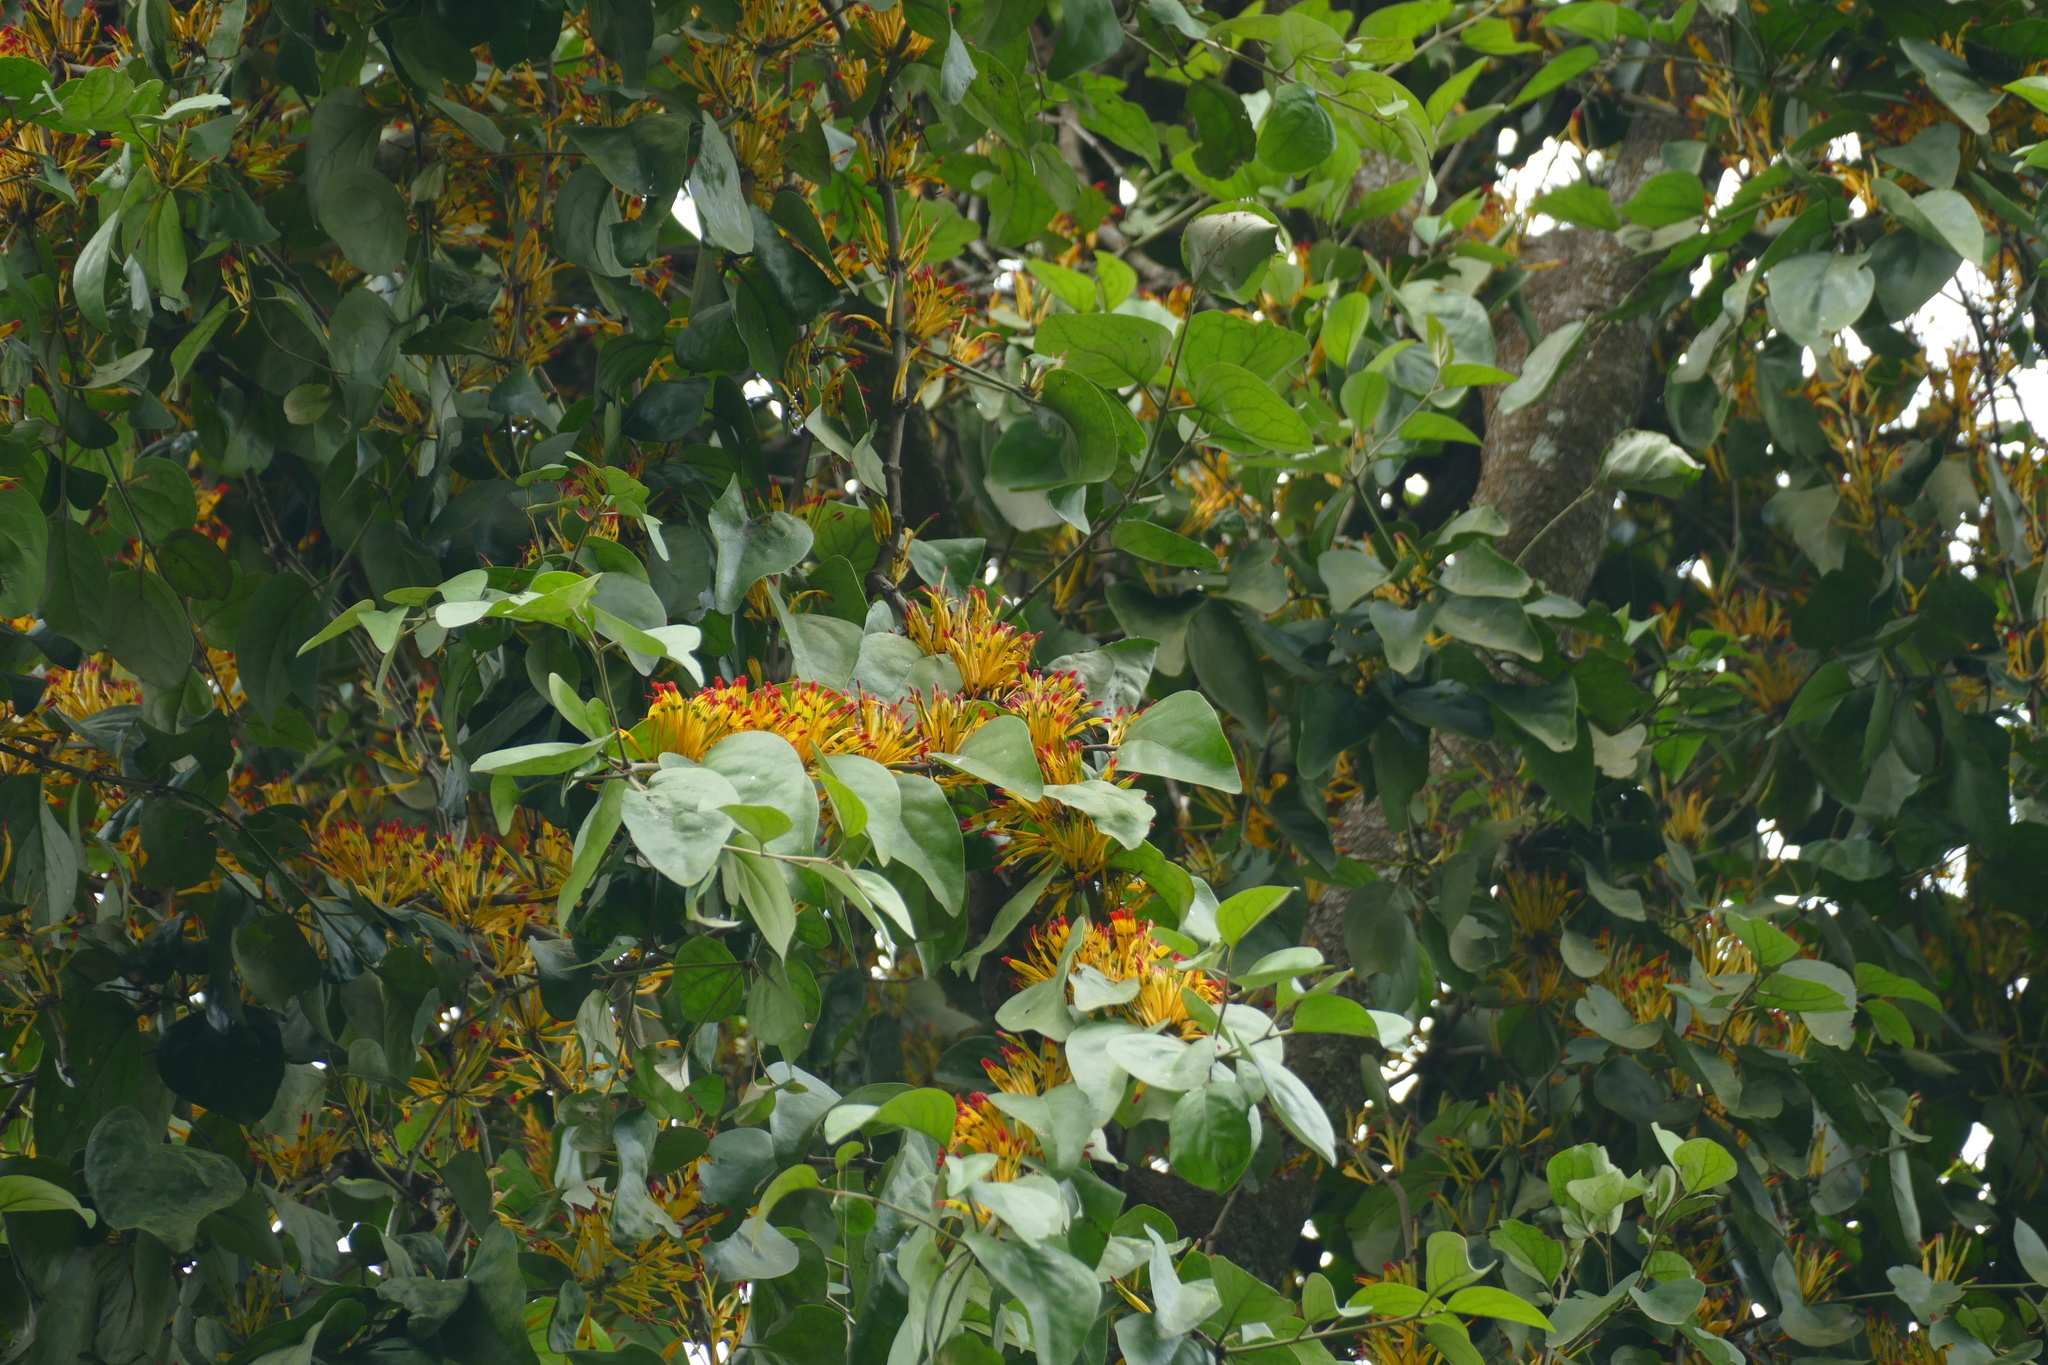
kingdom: Plantae
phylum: Tracheophyta
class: Magnoliopsida
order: Santalales
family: Loranthaceae
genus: Phragmanthera
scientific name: Phragmanthera capitata
